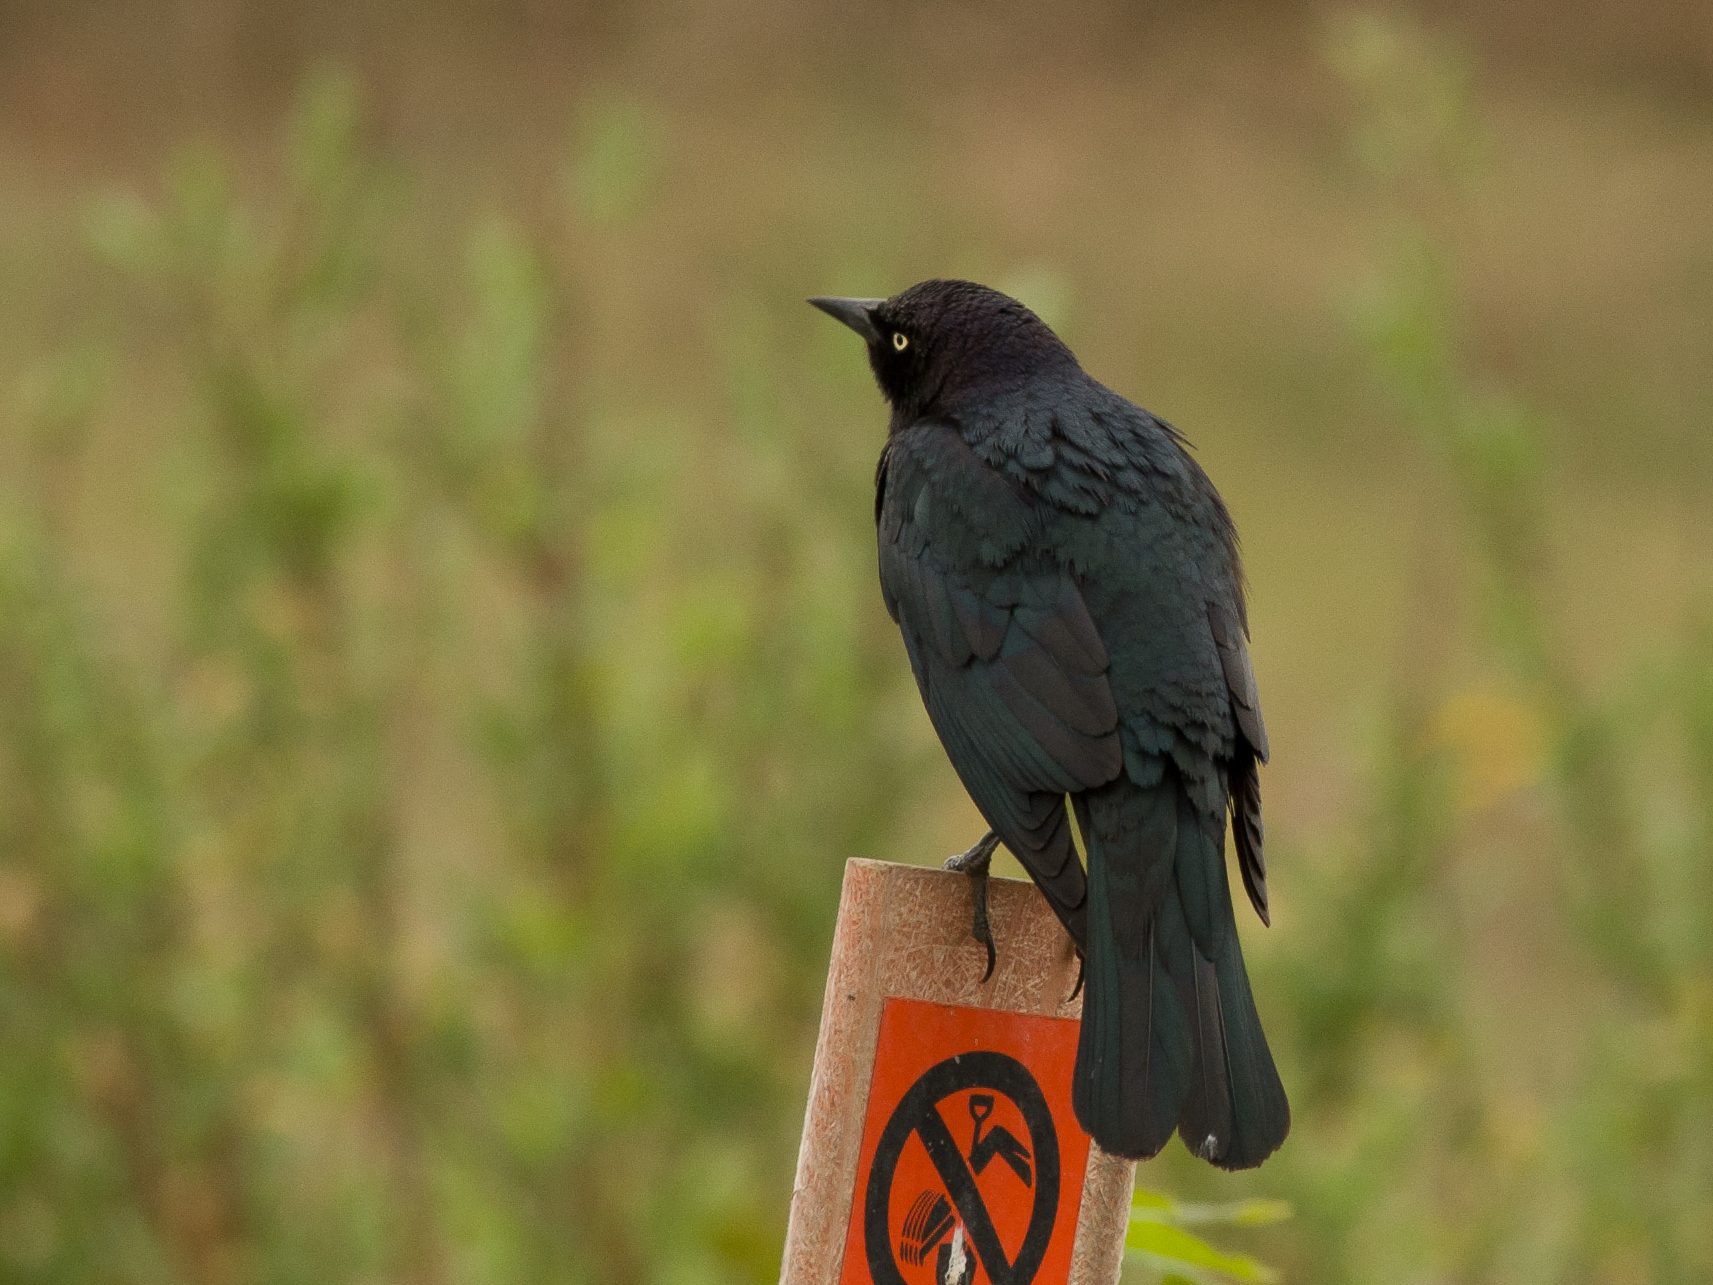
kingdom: Animalia
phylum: Chordata
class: Aves
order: Passeriformes
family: Icteridae
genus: Euphagus
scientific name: Euphagus cyanocephalus
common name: Brewer's blackbird
